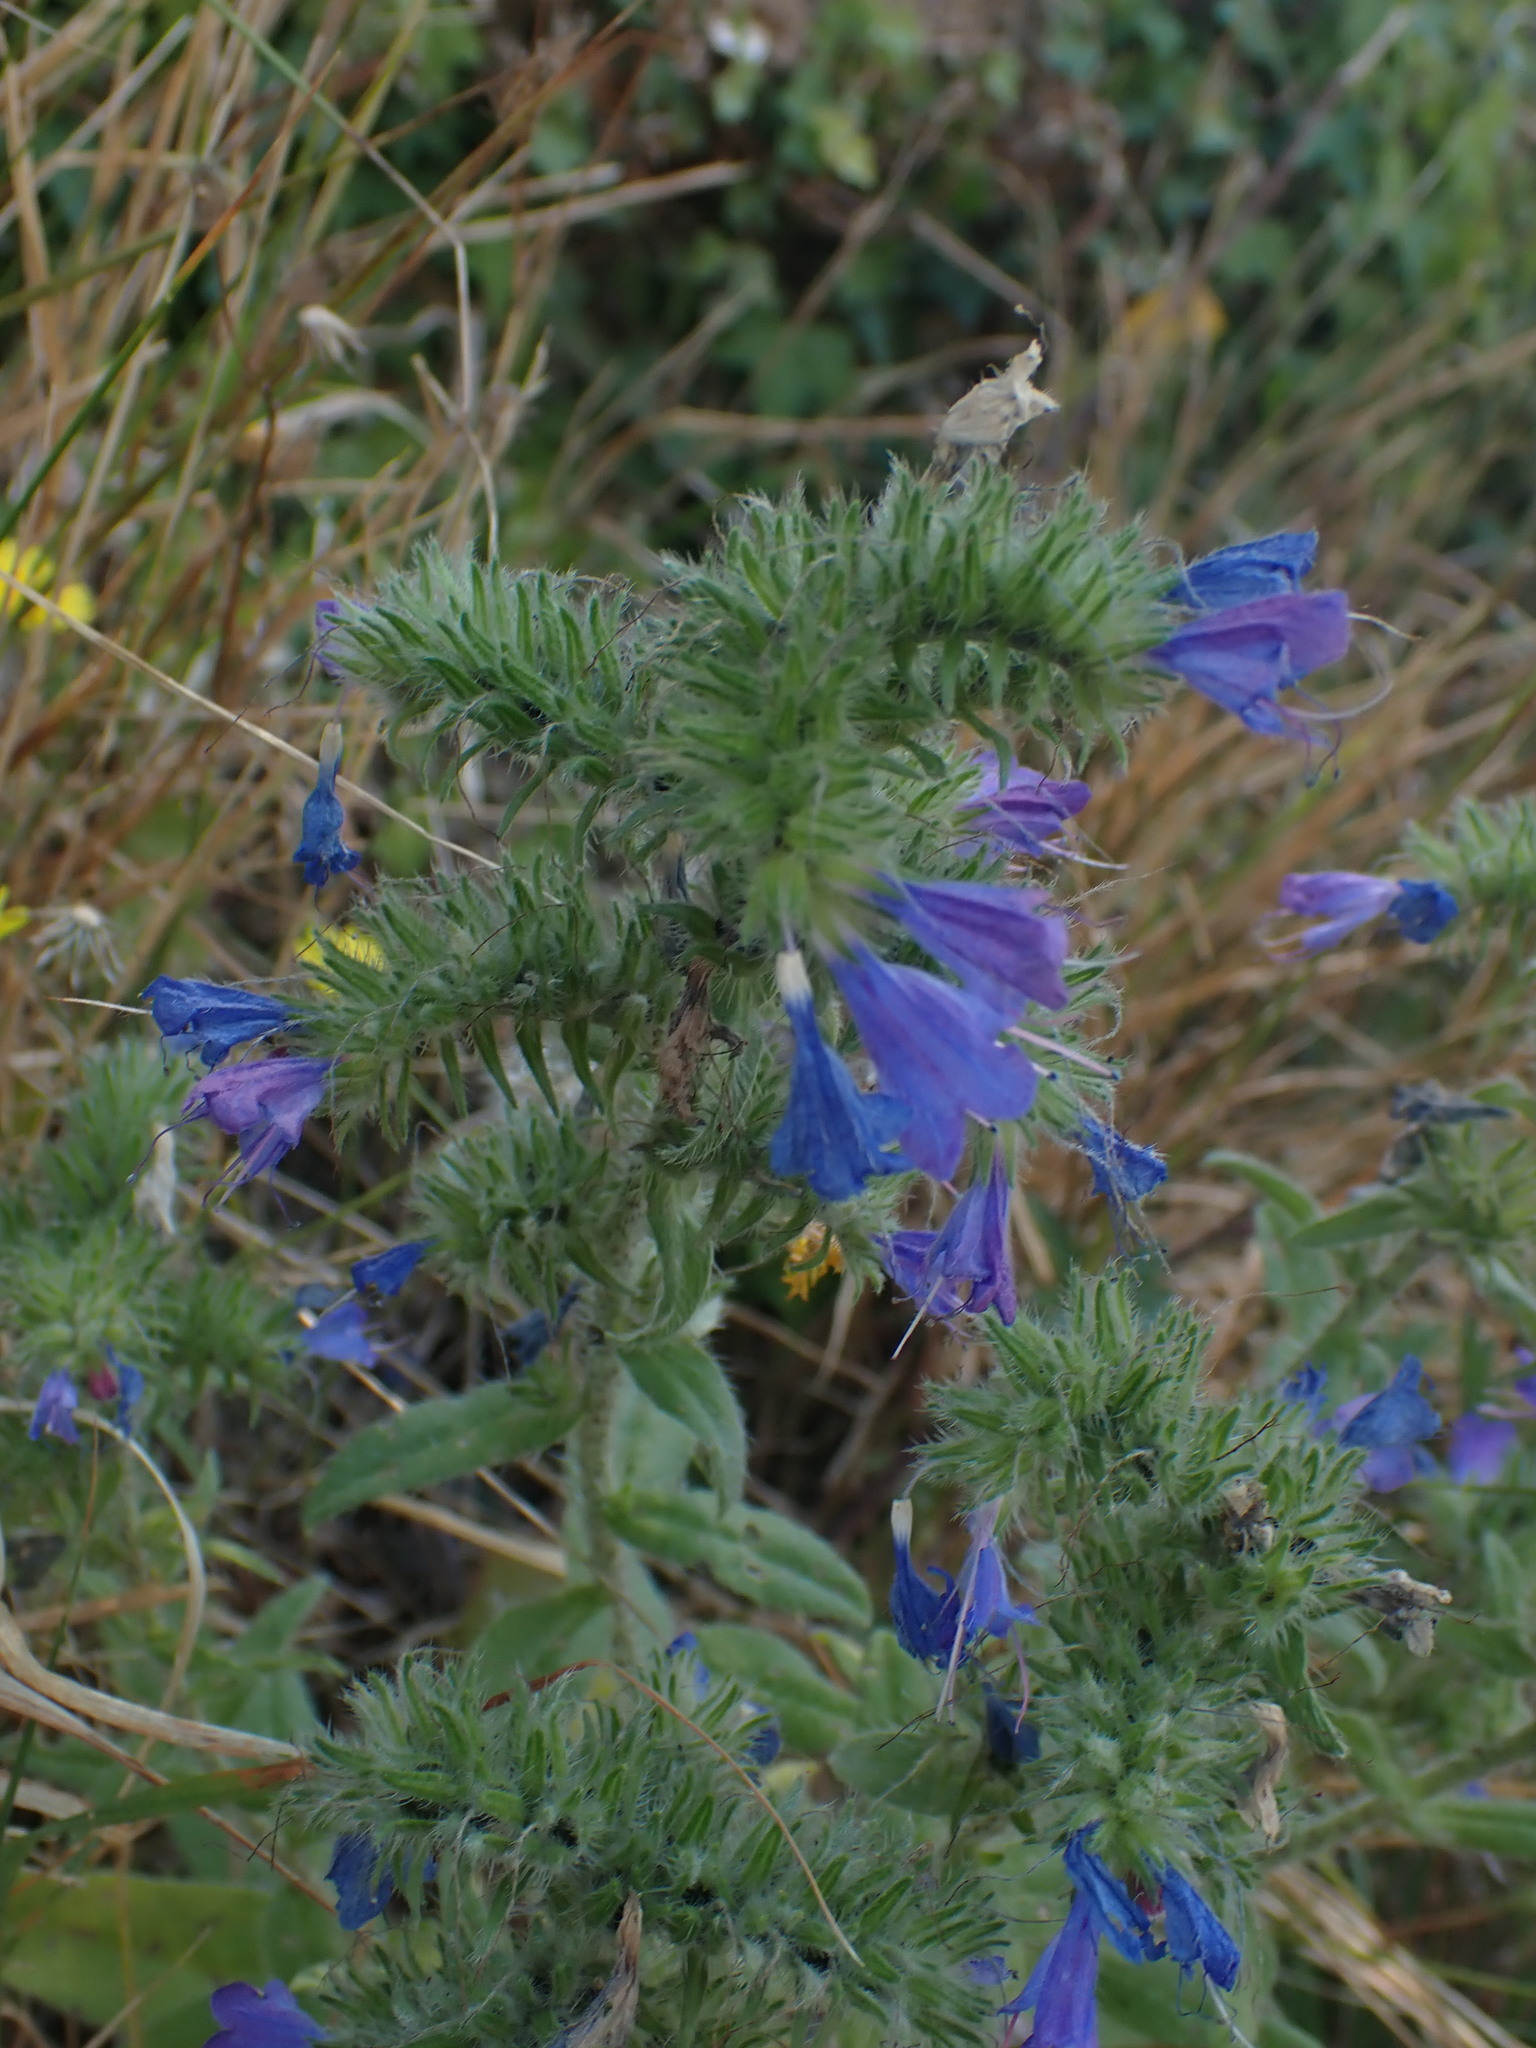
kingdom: Plantae
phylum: Tracheophyta
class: Magnoliopsida
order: Boraginales
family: Boraginaceae
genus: Echium
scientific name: Echium vulgare
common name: Common viper's bugloss
